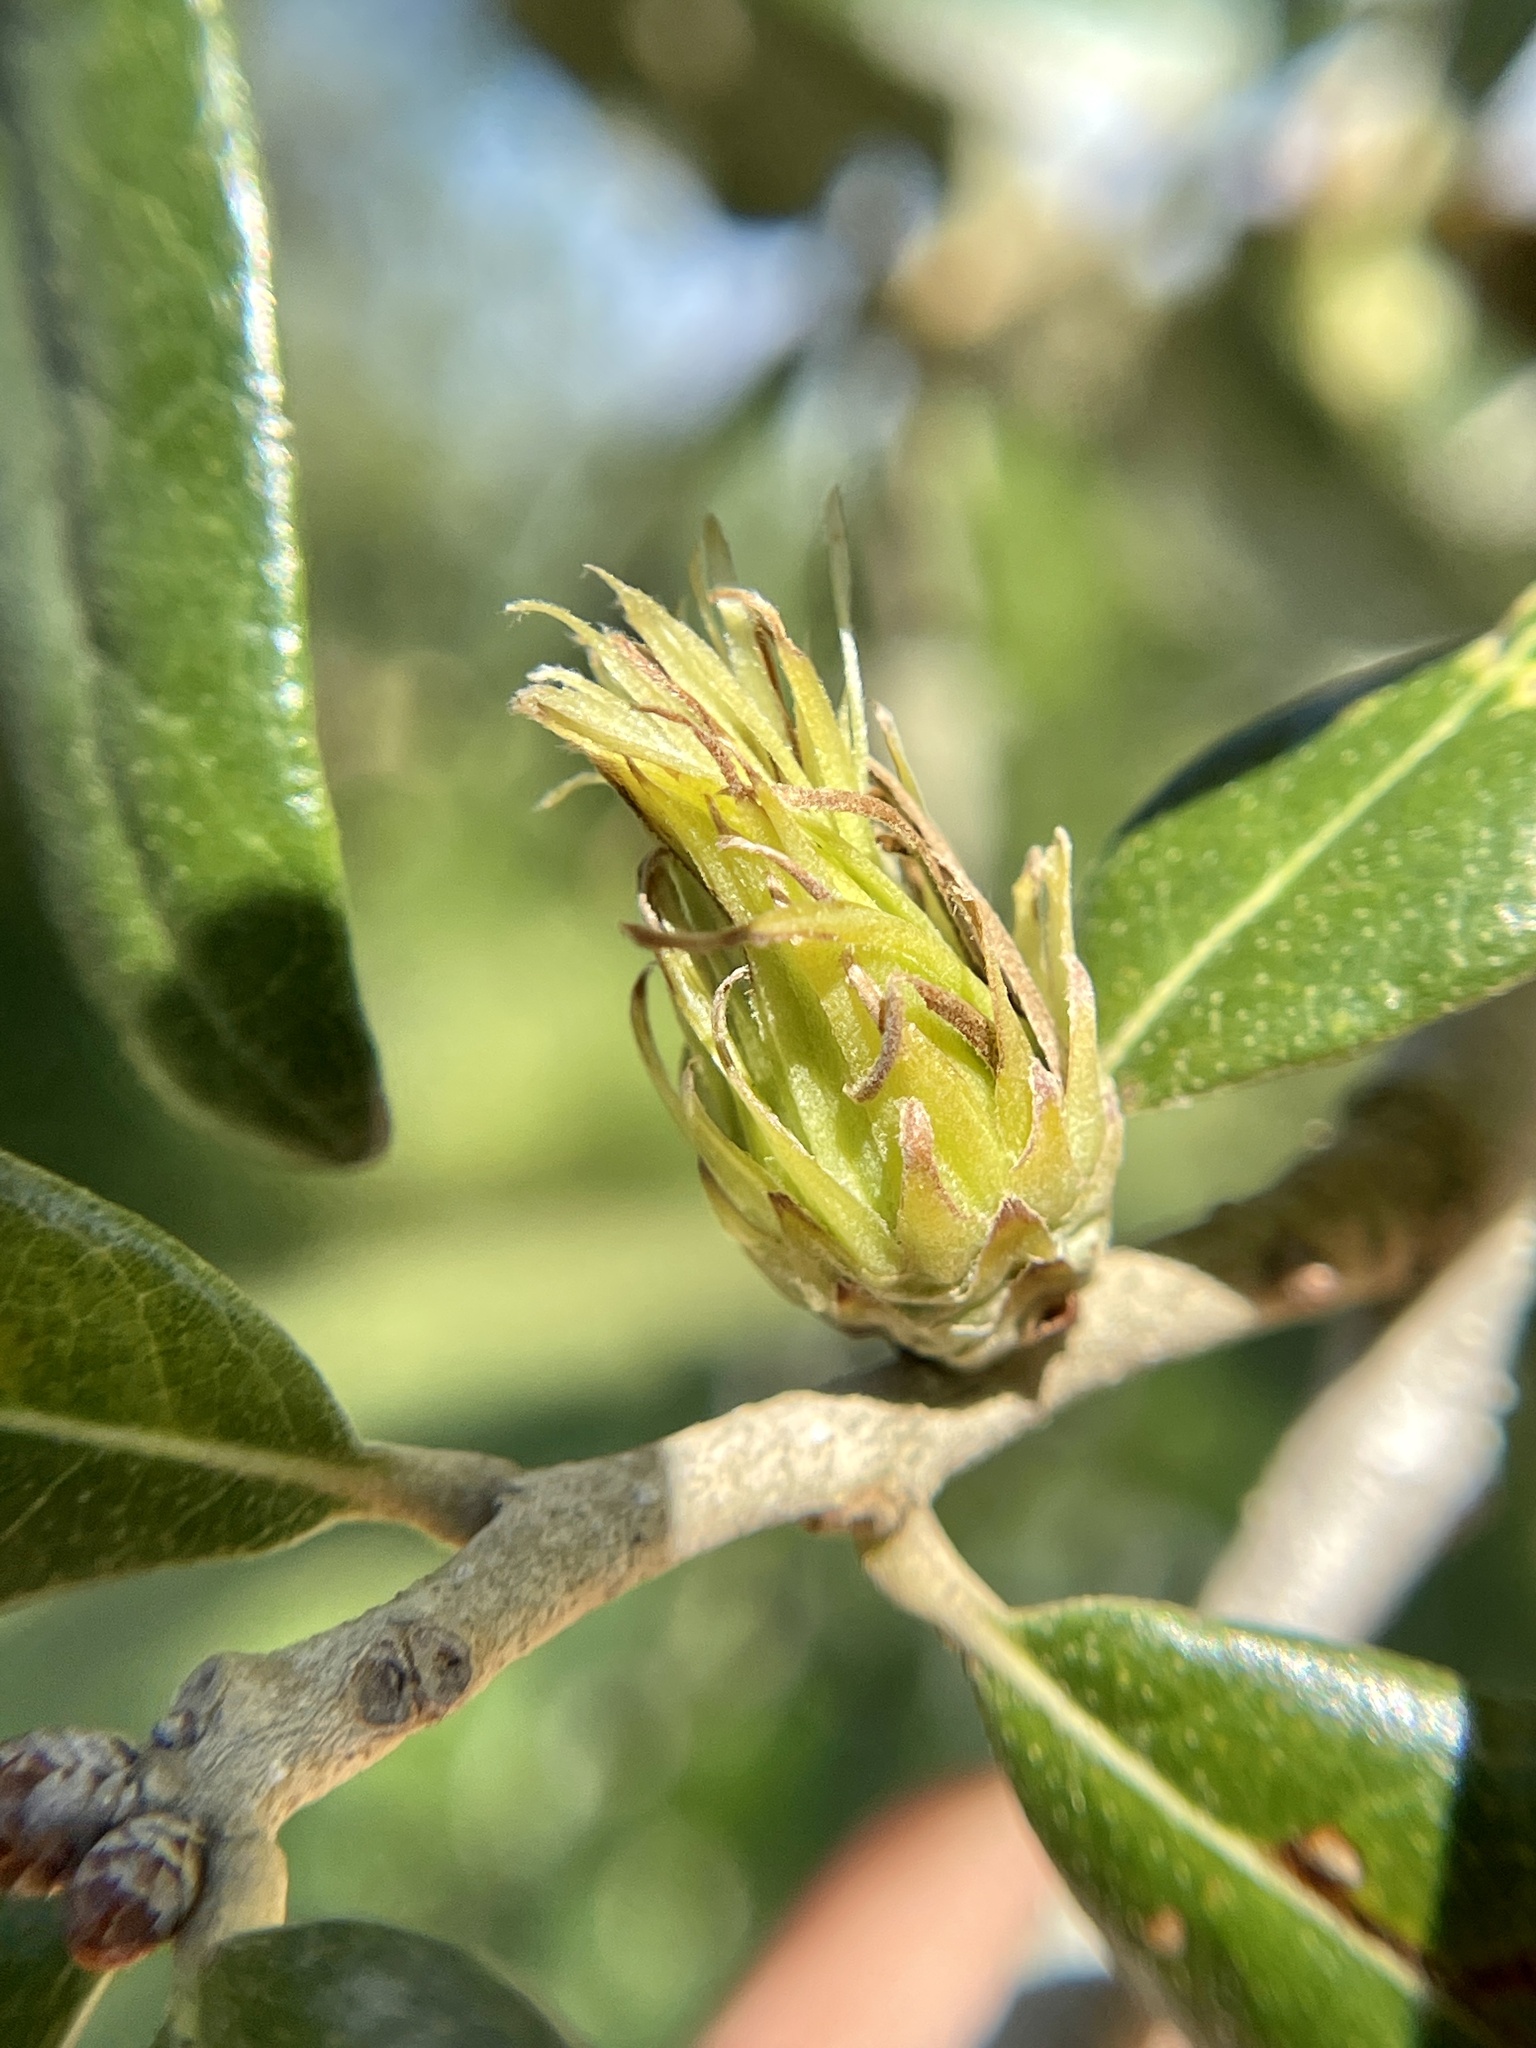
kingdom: Animalia
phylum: Arthropoda
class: Insecta
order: Hymenoptera
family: Cynipidae
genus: Andricus
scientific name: Andricus quercusfoliatus
